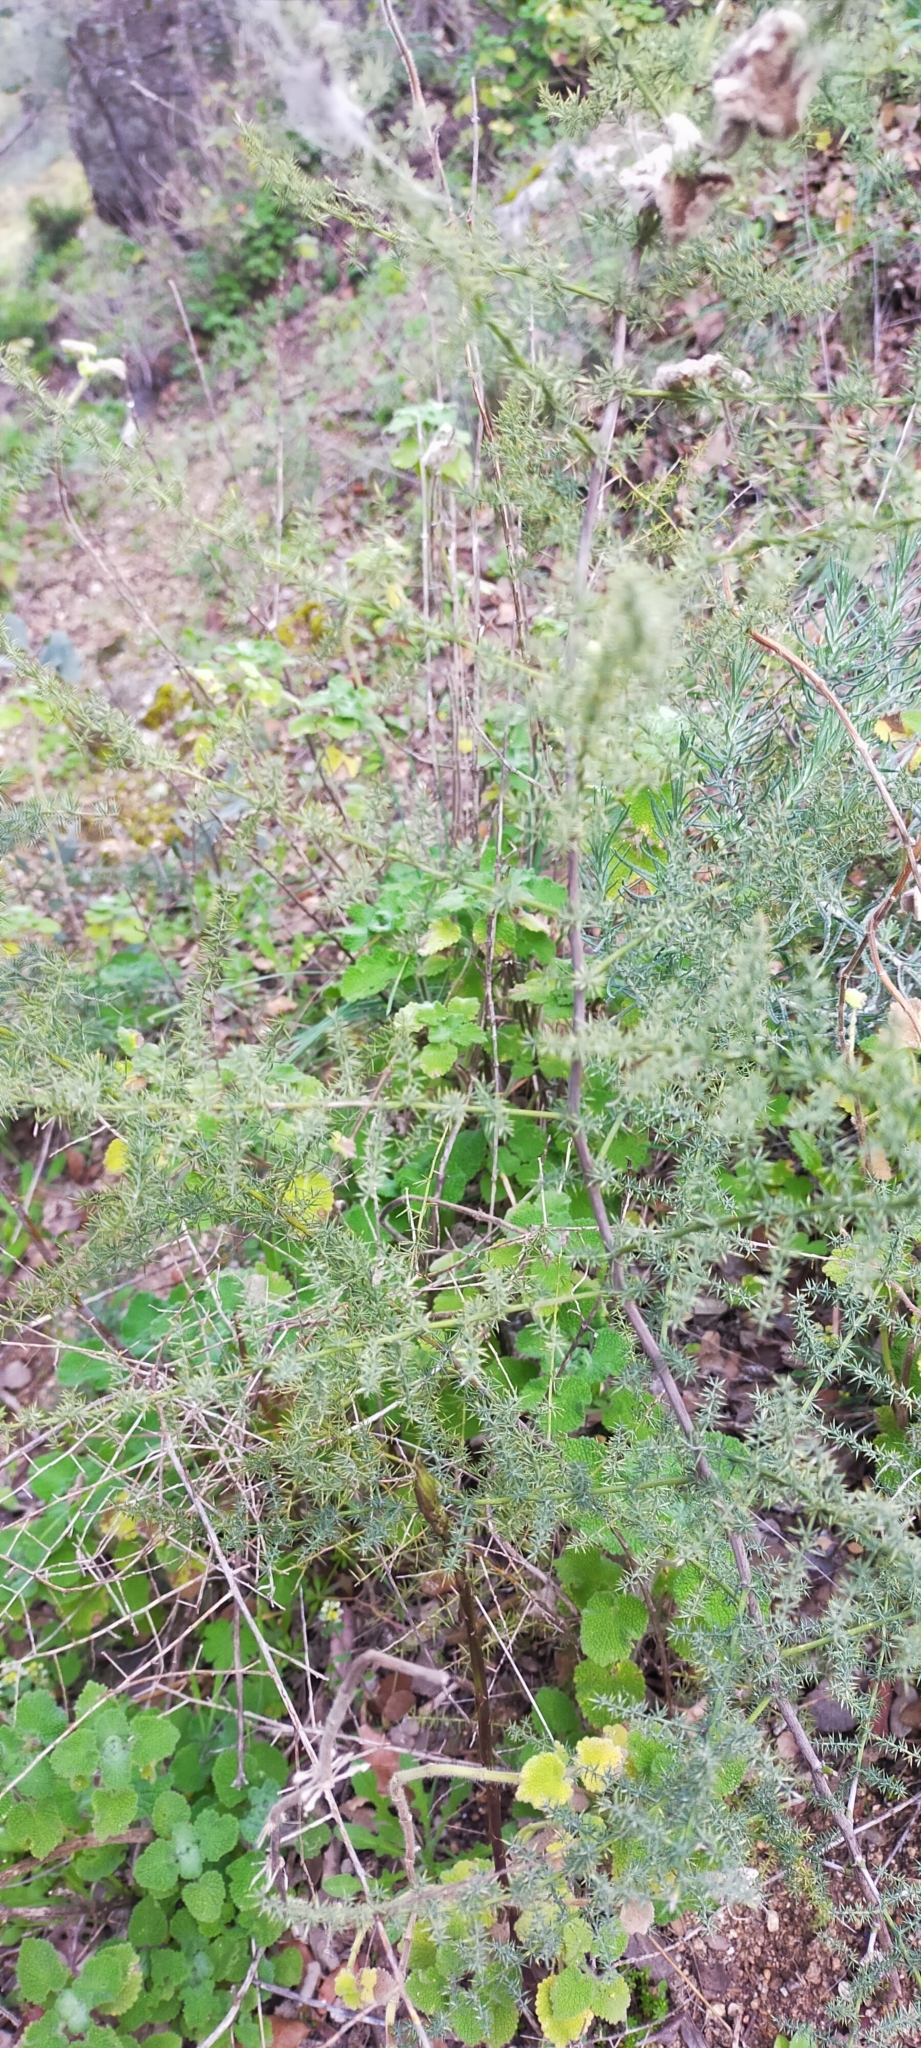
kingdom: Plantae
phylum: Tracheophyta
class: Liliopsida
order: Asparagales
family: Asparagaceae
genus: Asparagus
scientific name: Asparagus acutifolius
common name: Wild asparagus
